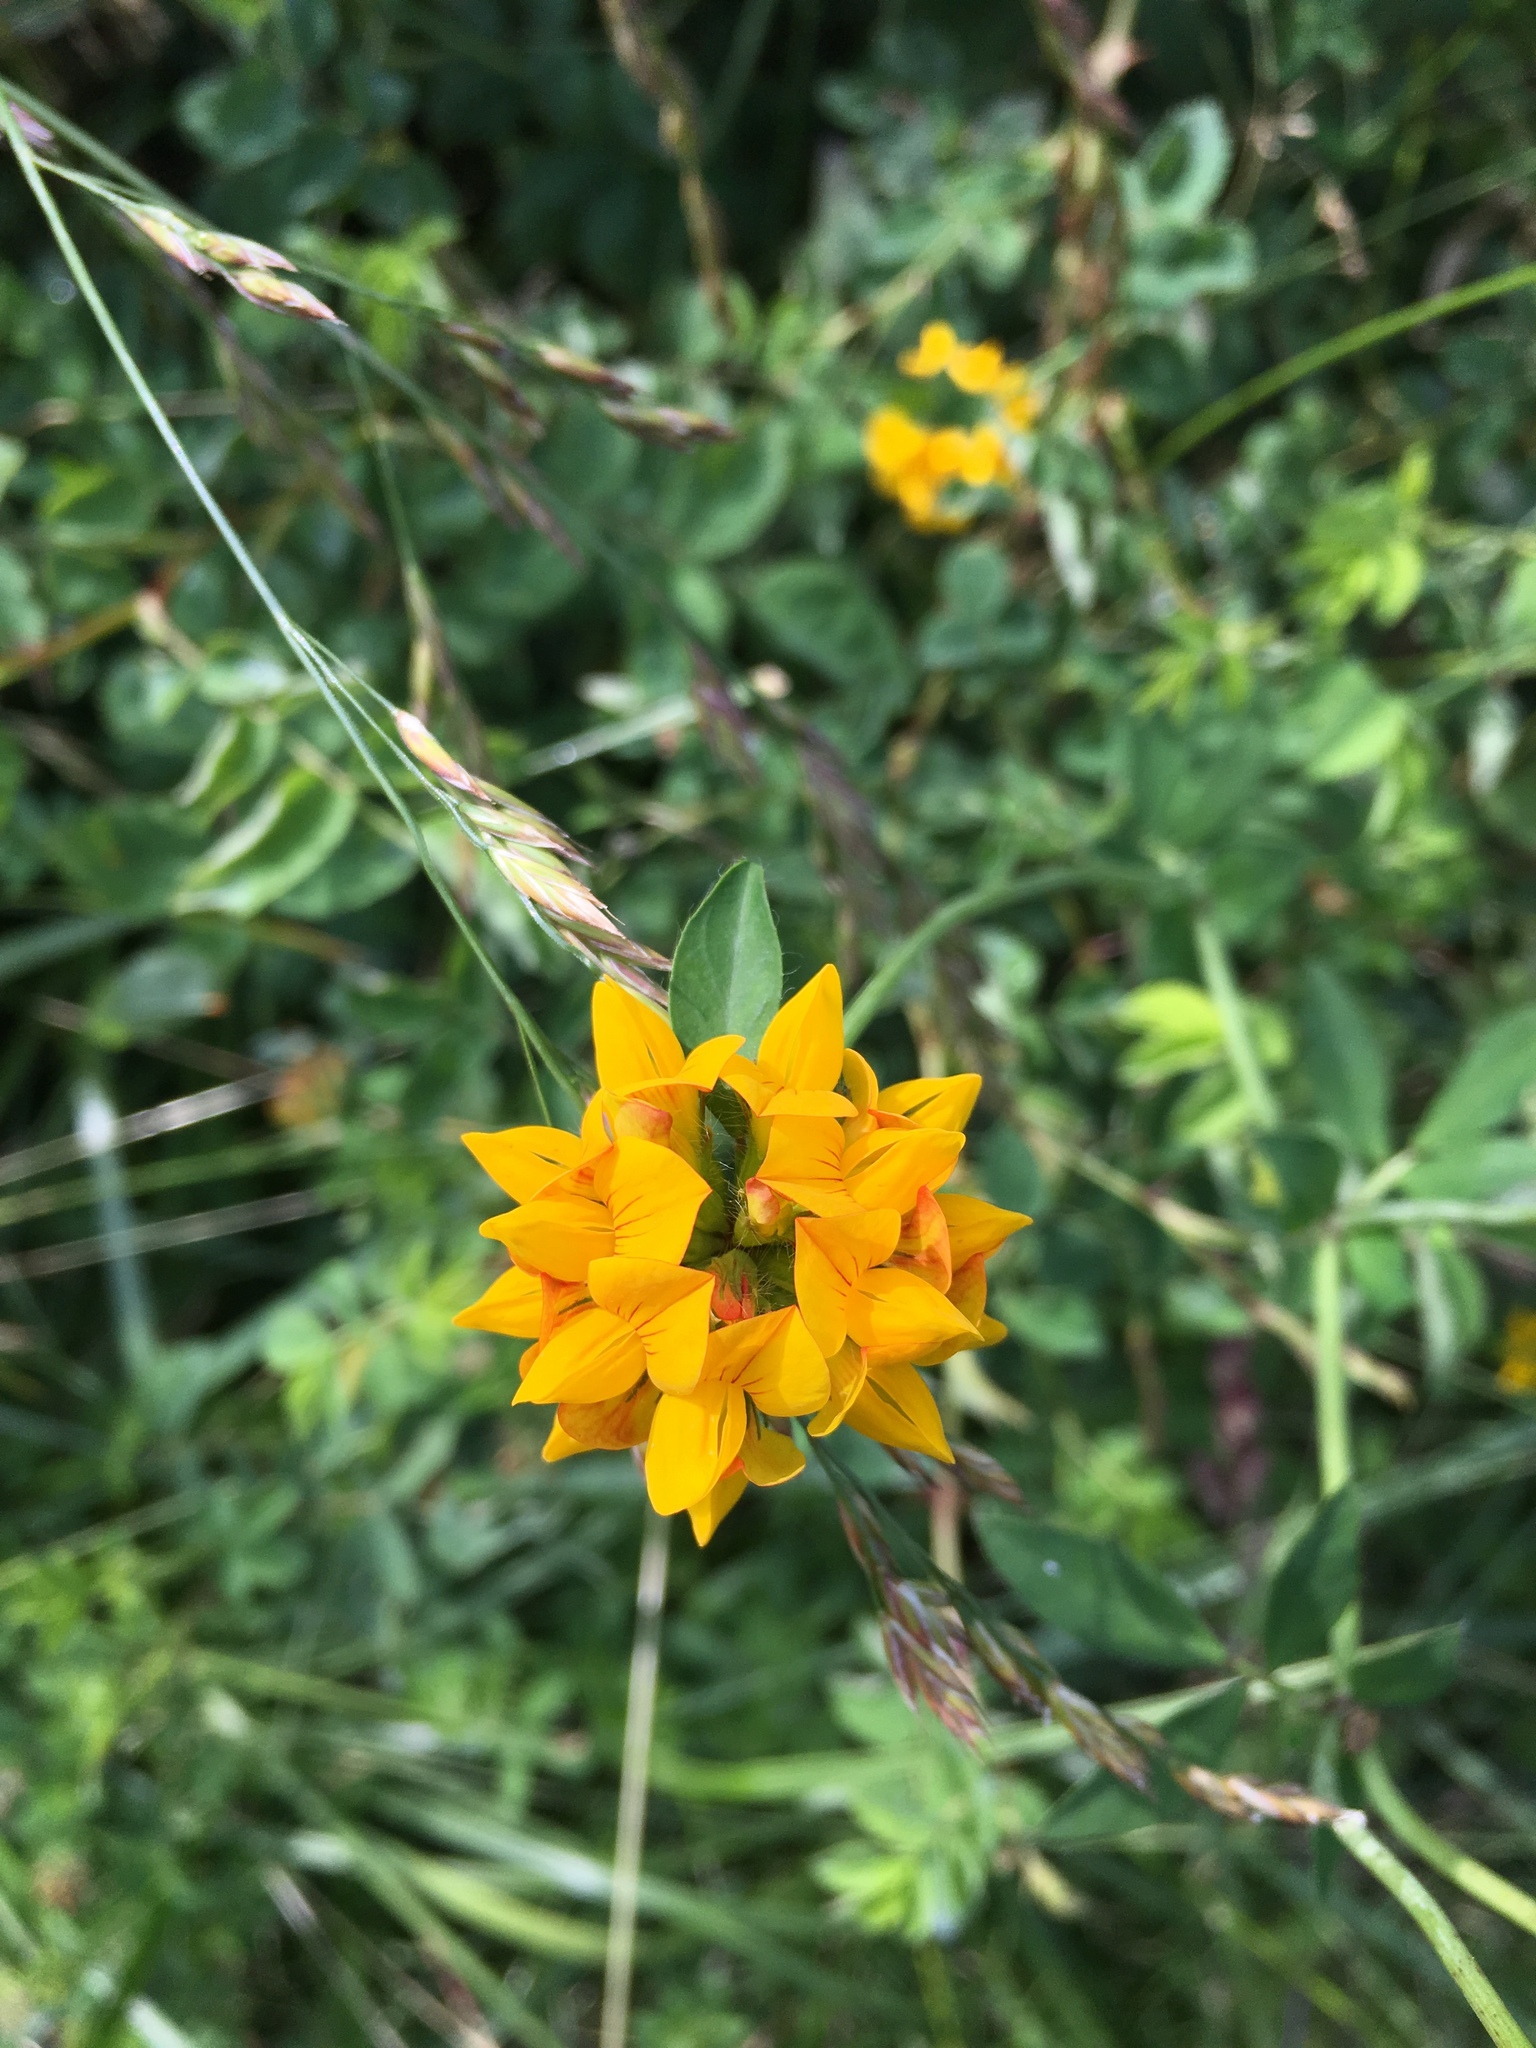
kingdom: Plantae
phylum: Tracheophyta
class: Magnoliopsida
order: Fabales
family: Fabaceae
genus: Lotus
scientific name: Lotus pedunculatus
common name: Greater birdsfoot-trefoil
